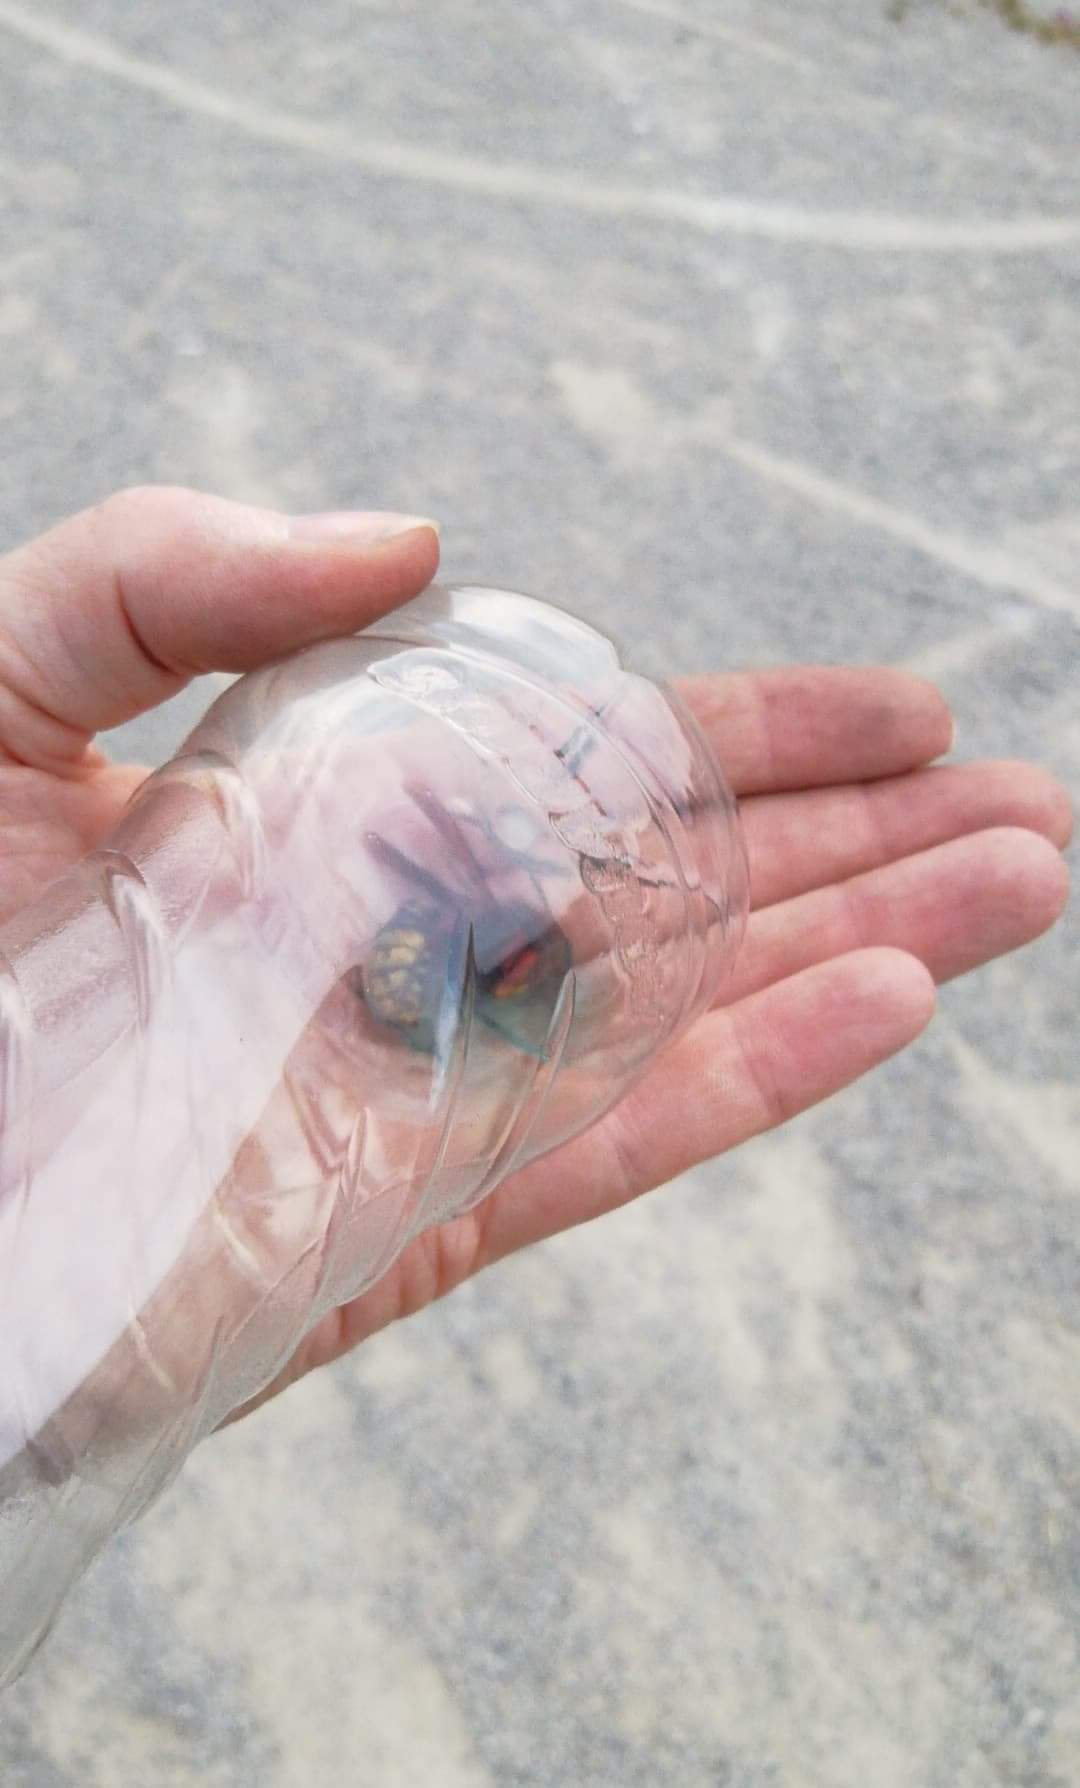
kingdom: Animalia
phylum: Arthropoda
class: Insecta
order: Hymenoptera
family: Vespidae
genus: Vespa
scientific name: Vespa crabro
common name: Hornet
